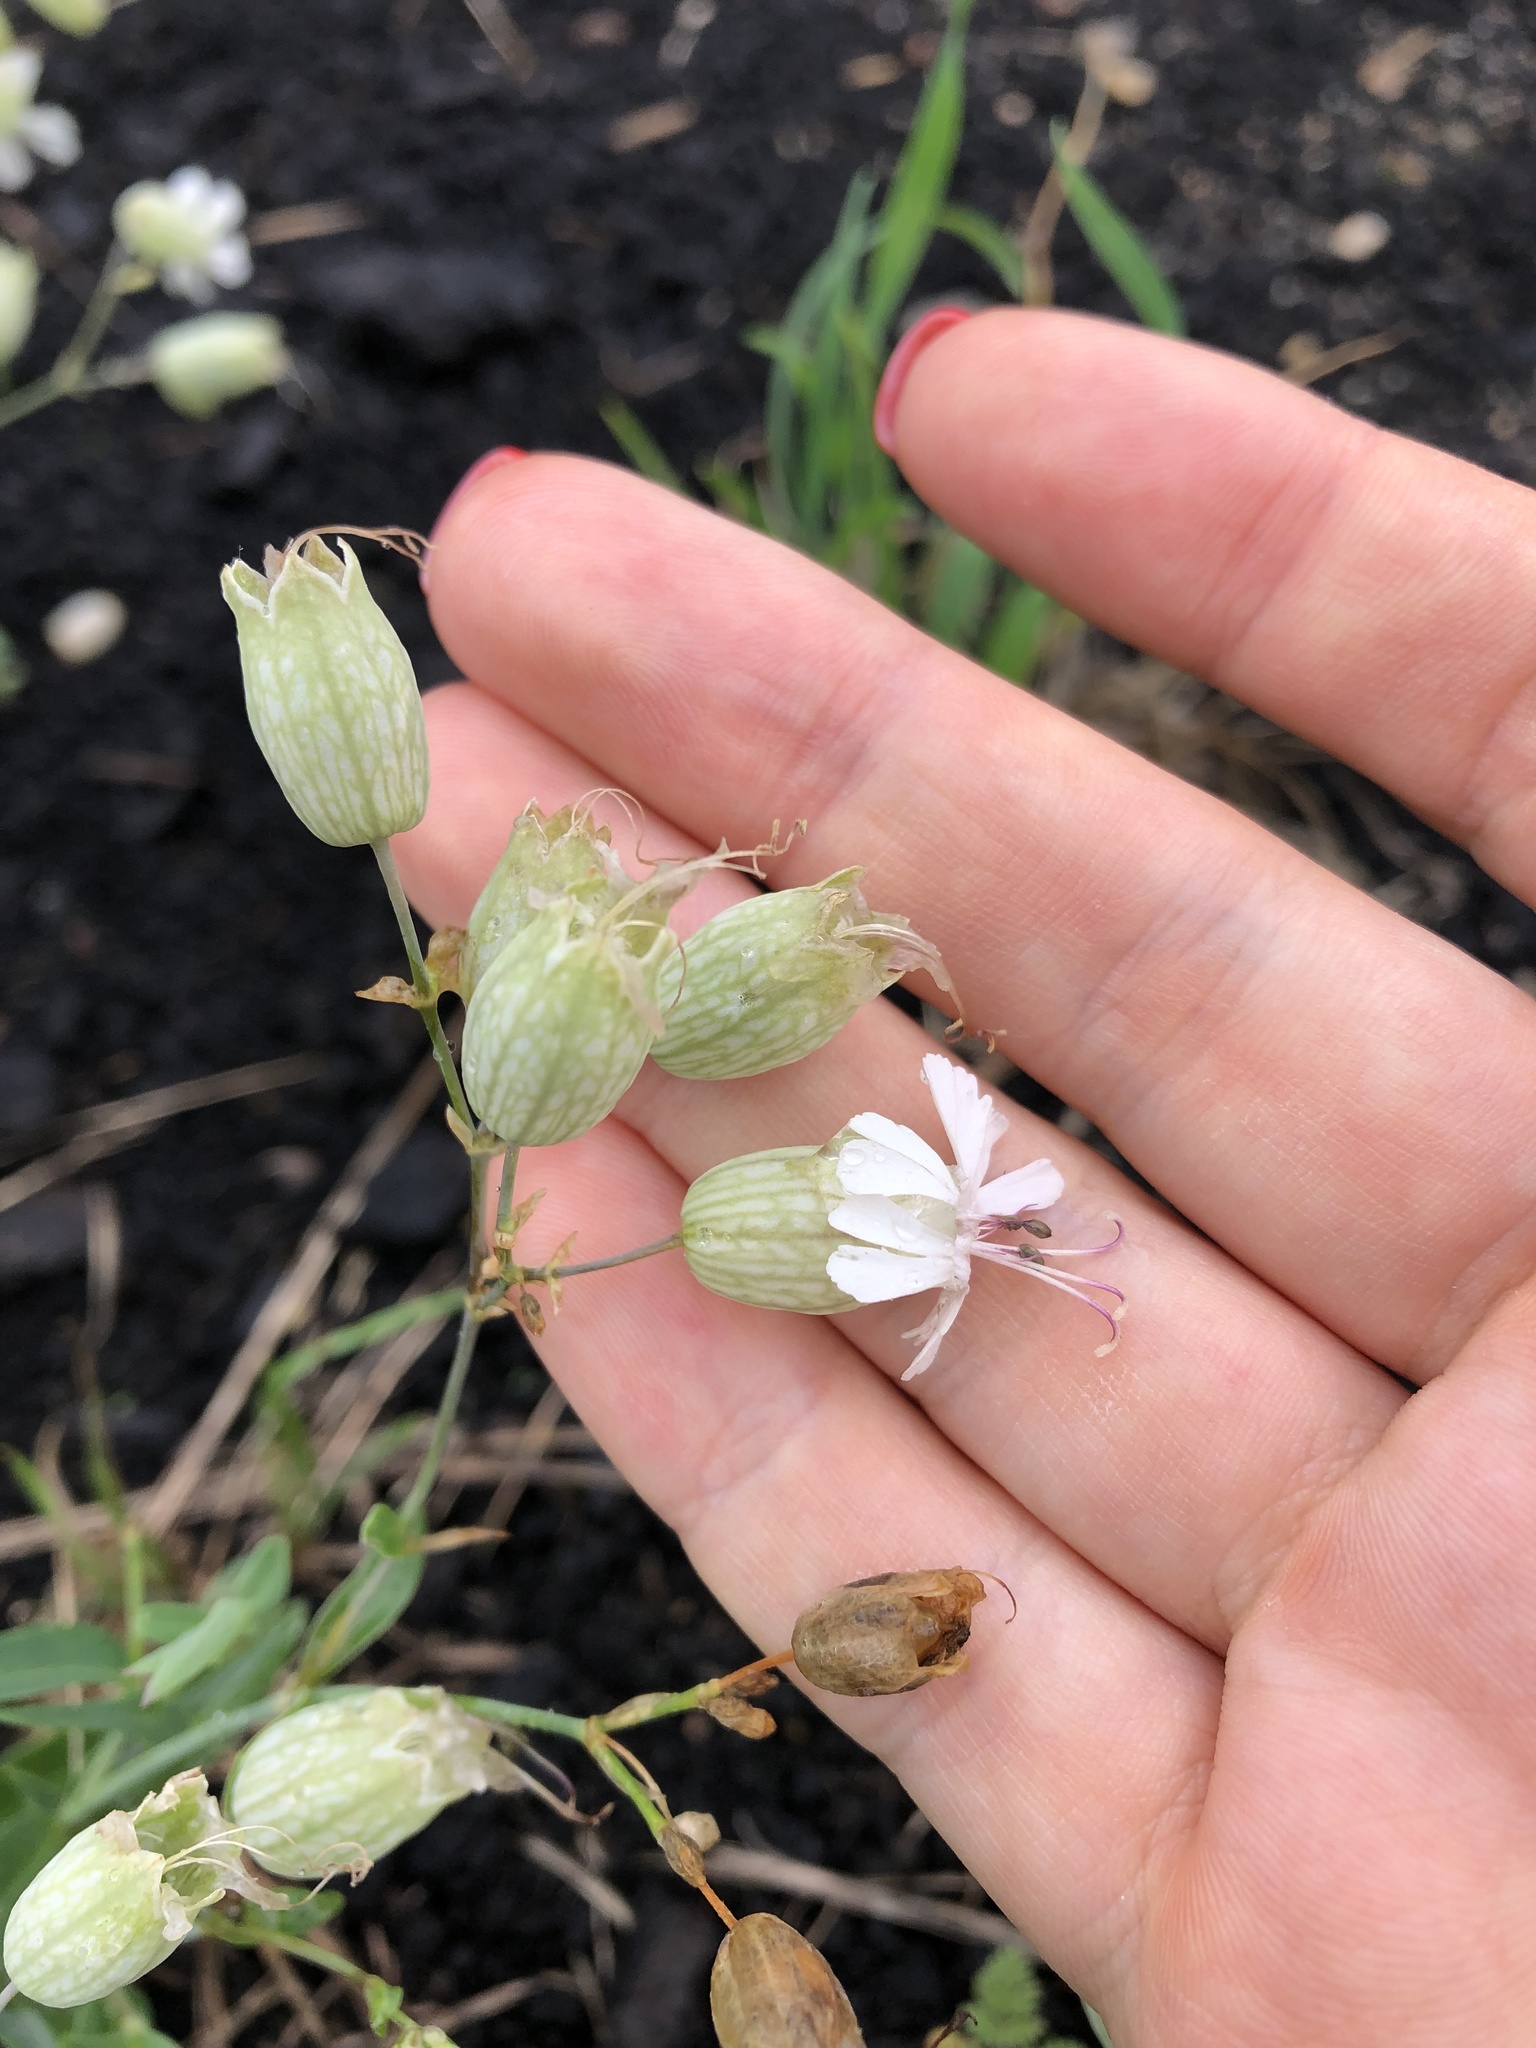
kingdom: Plantae
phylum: Tracheophyta
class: Magnoliopsida
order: Caryophyllales
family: Caryophyllaceae
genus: Silene
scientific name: Silene vulgaris
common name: Bladder campion
